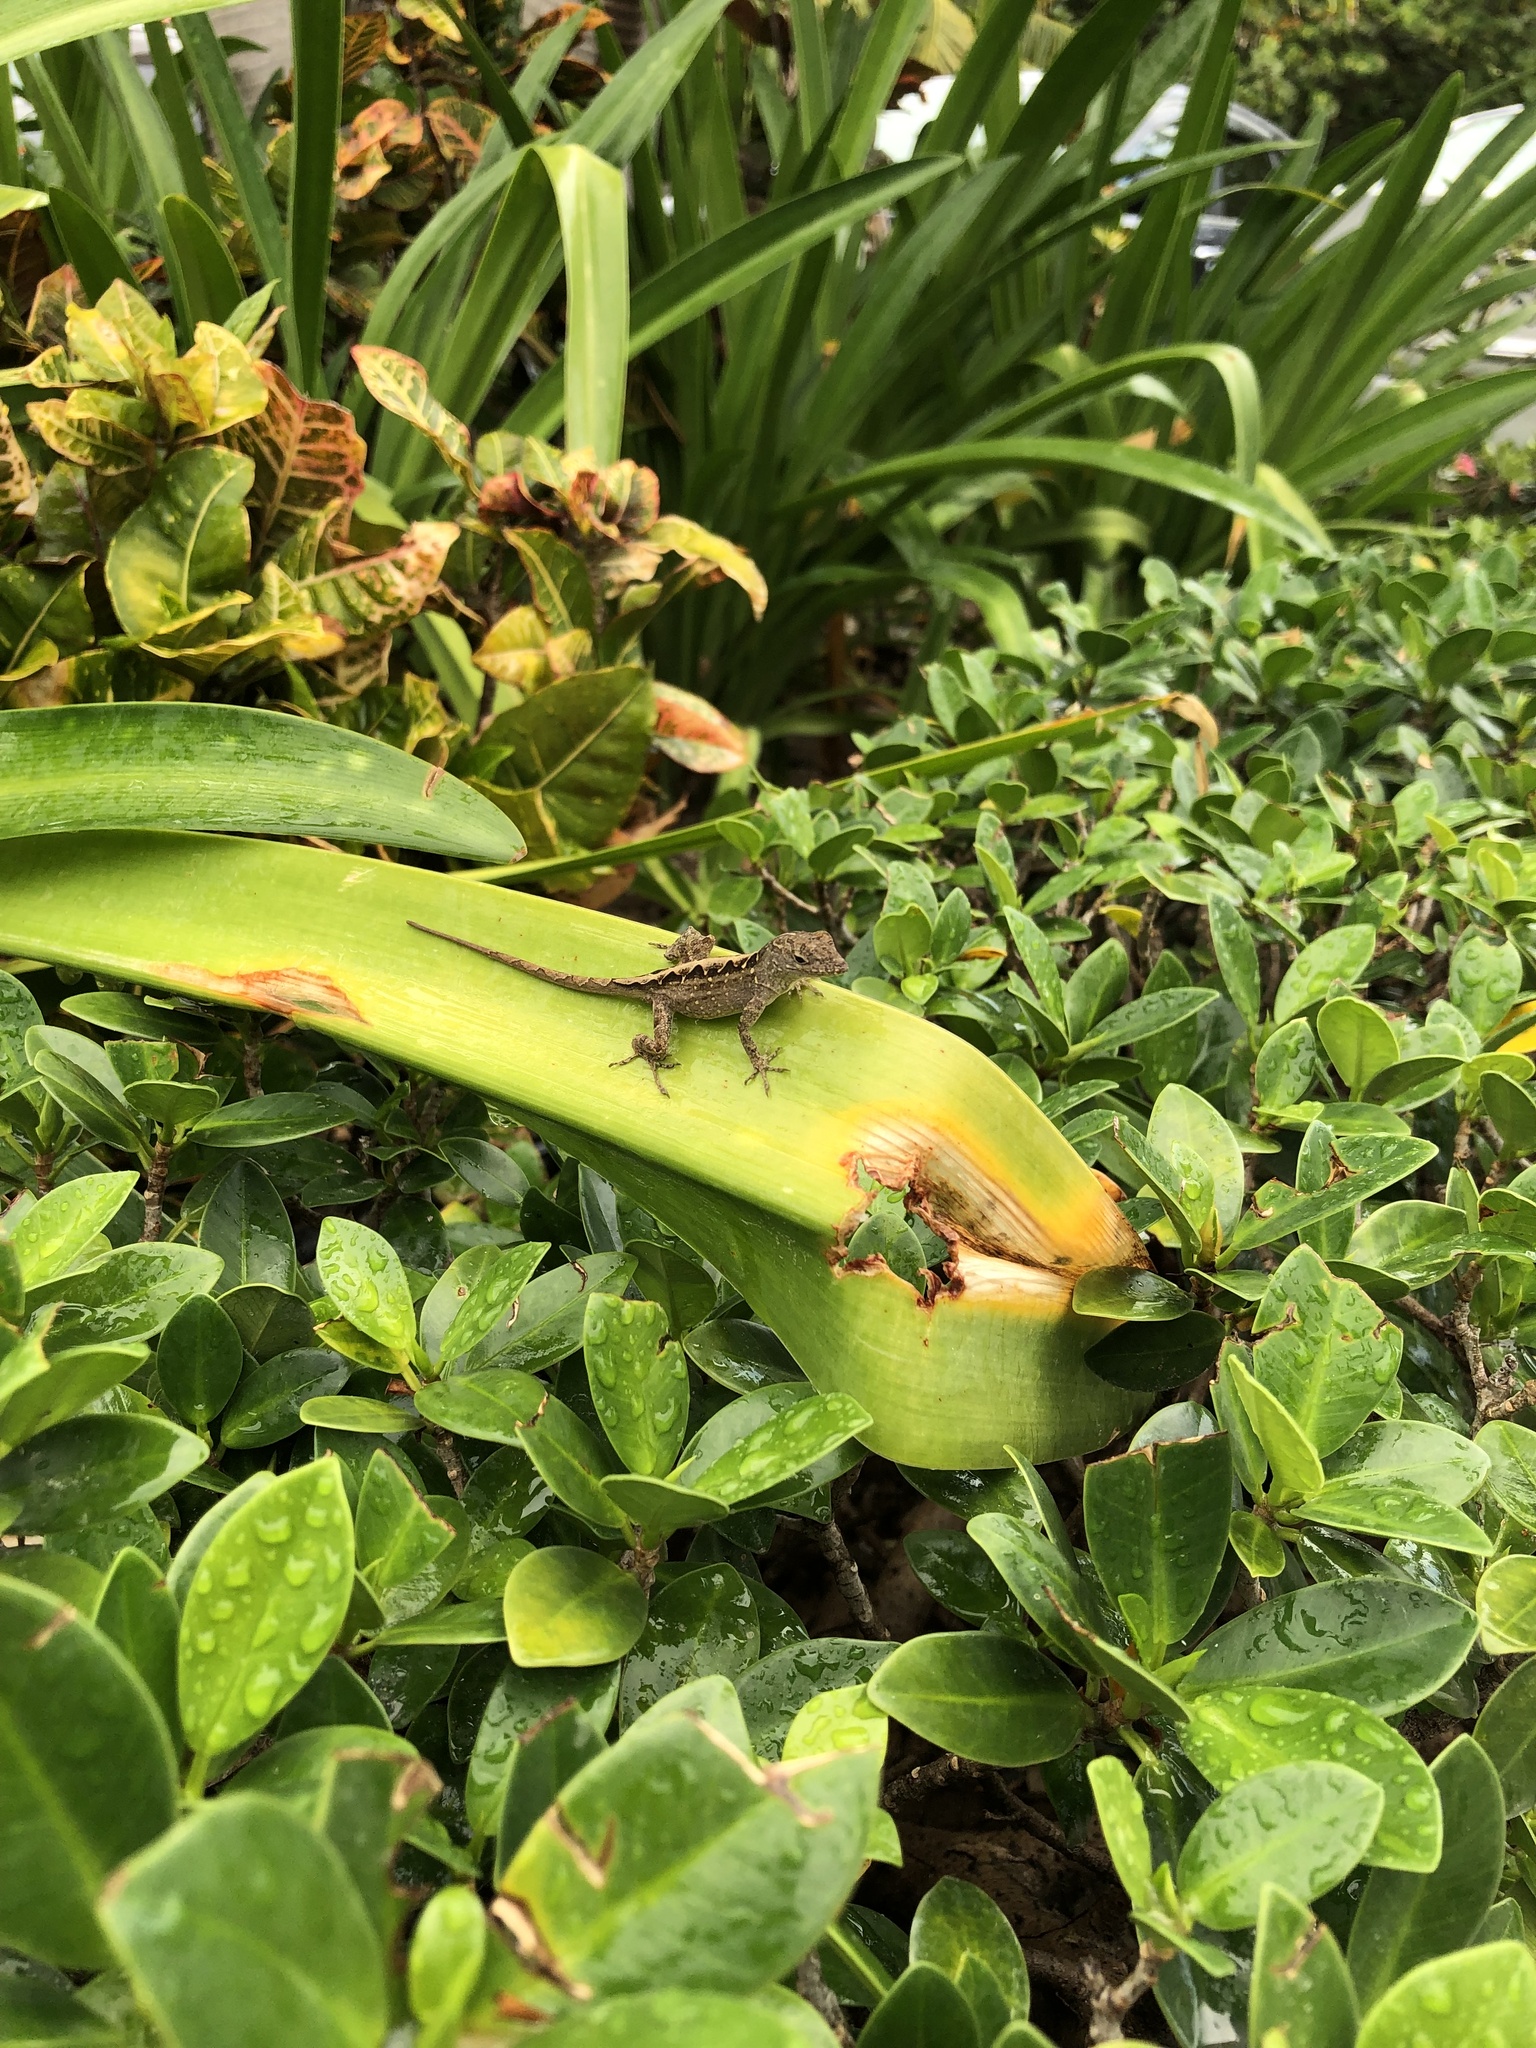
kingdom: Animalia
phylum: Chordata
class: Squamata
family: Dactyloidae
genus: Anolis
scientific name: Anolis sagrei
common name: Brown anole
